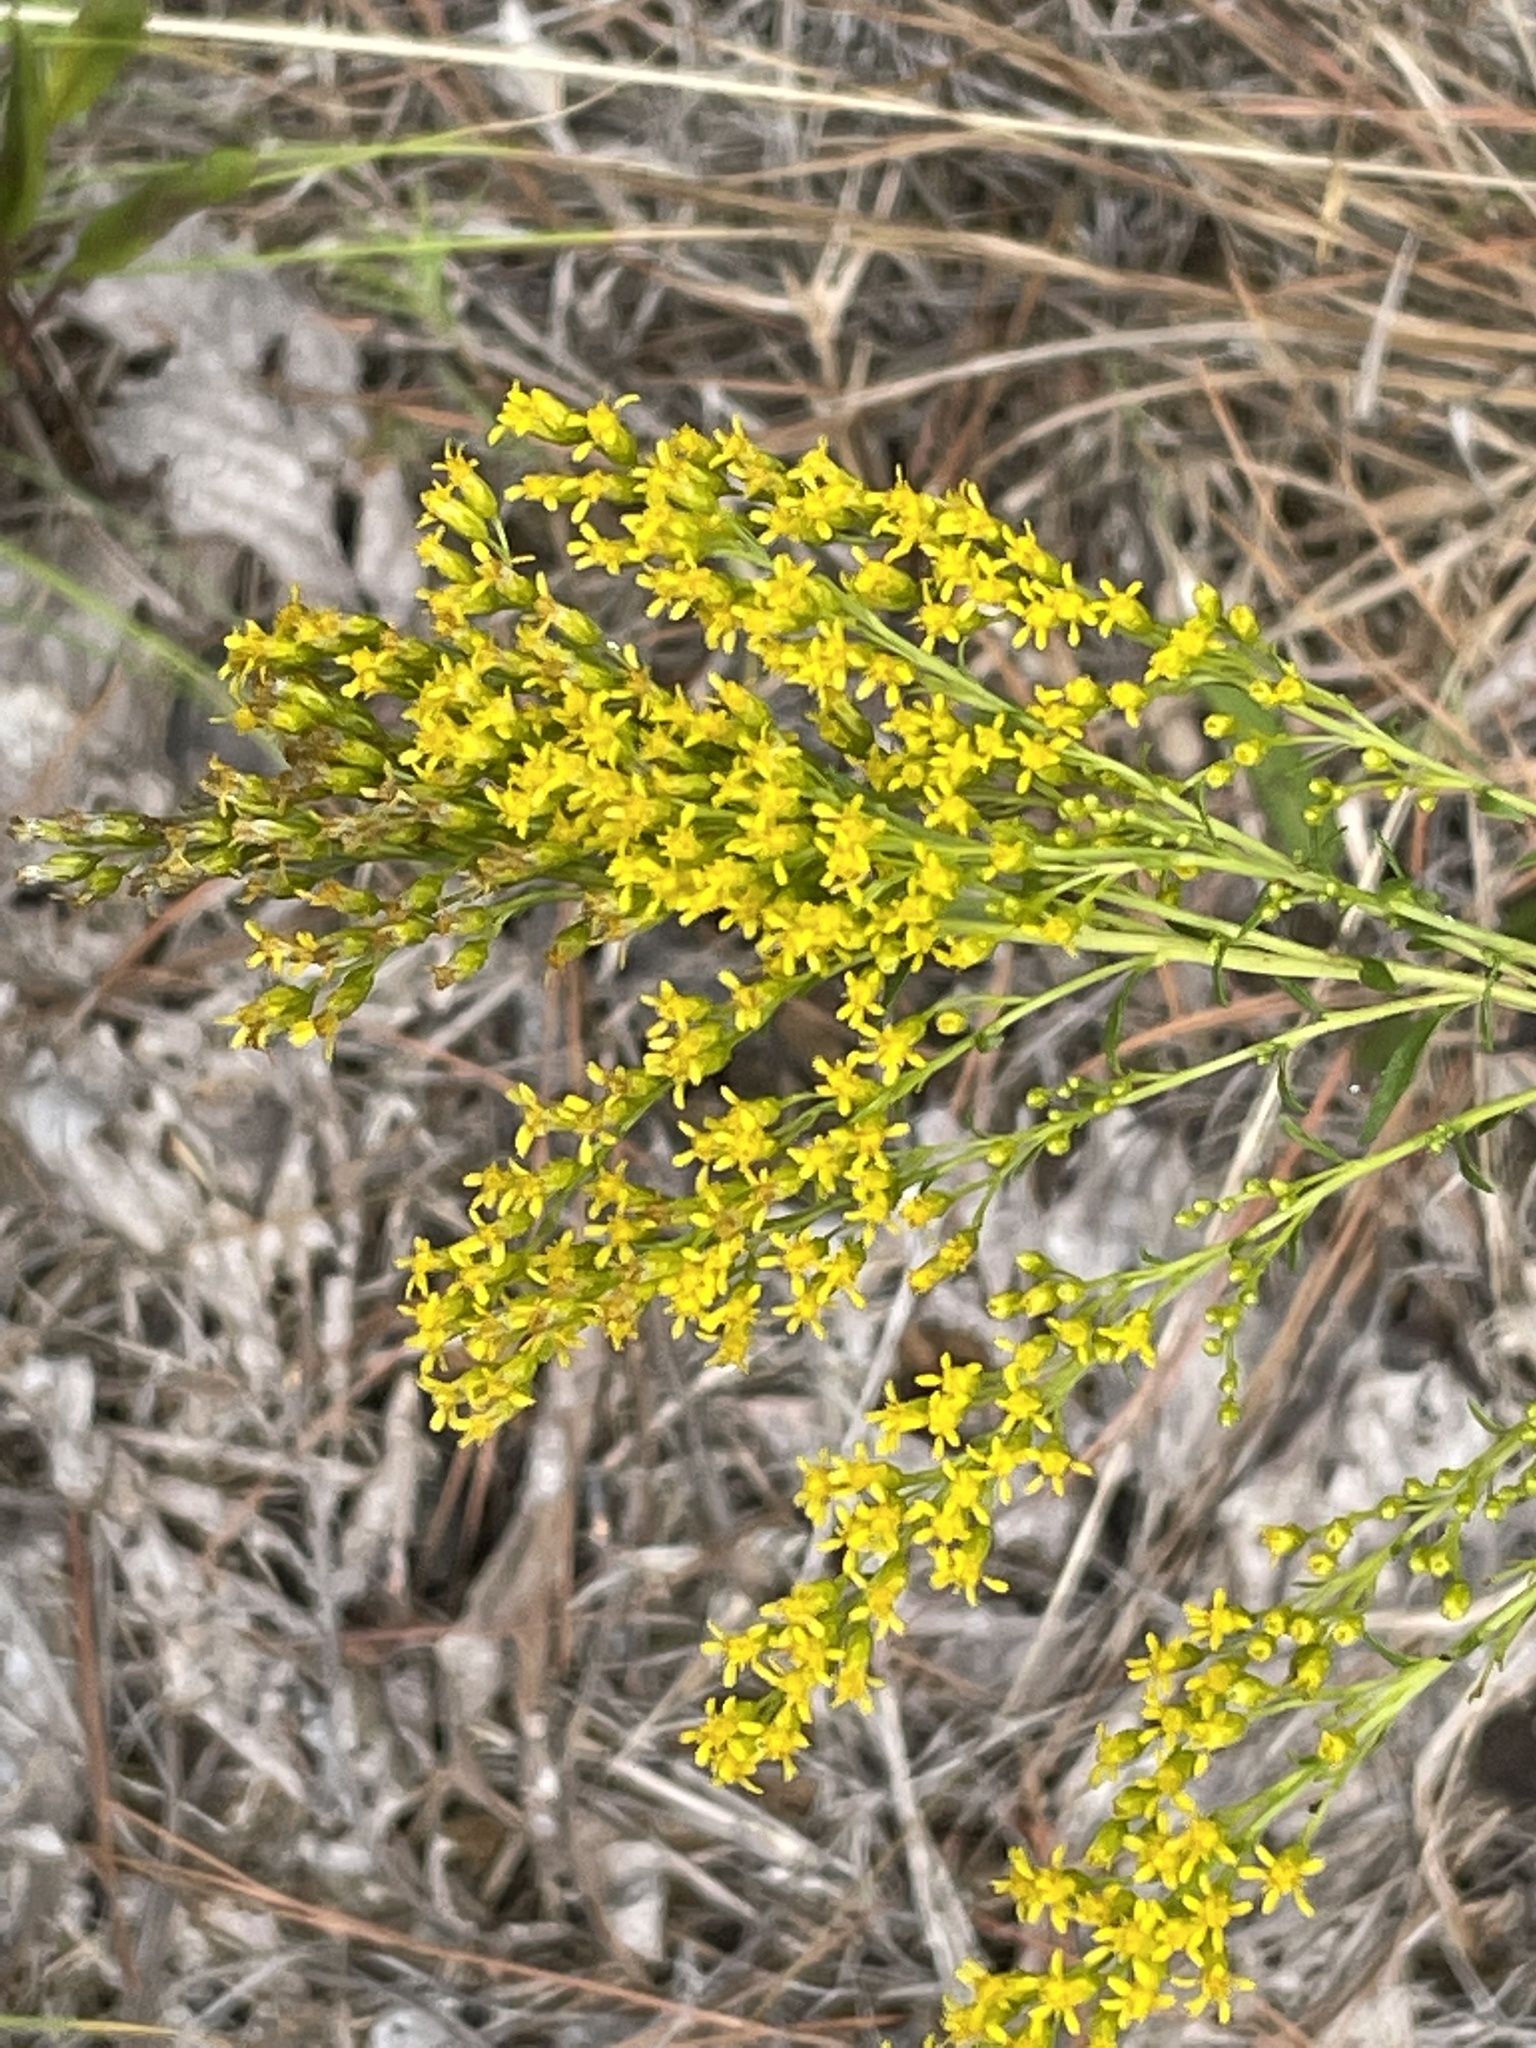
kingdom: Plantae
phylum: Tracheophyta
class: Magnoliopsida
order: Asterales
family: Asteraceae
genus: Solidago
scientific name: Solidago pinetorum
